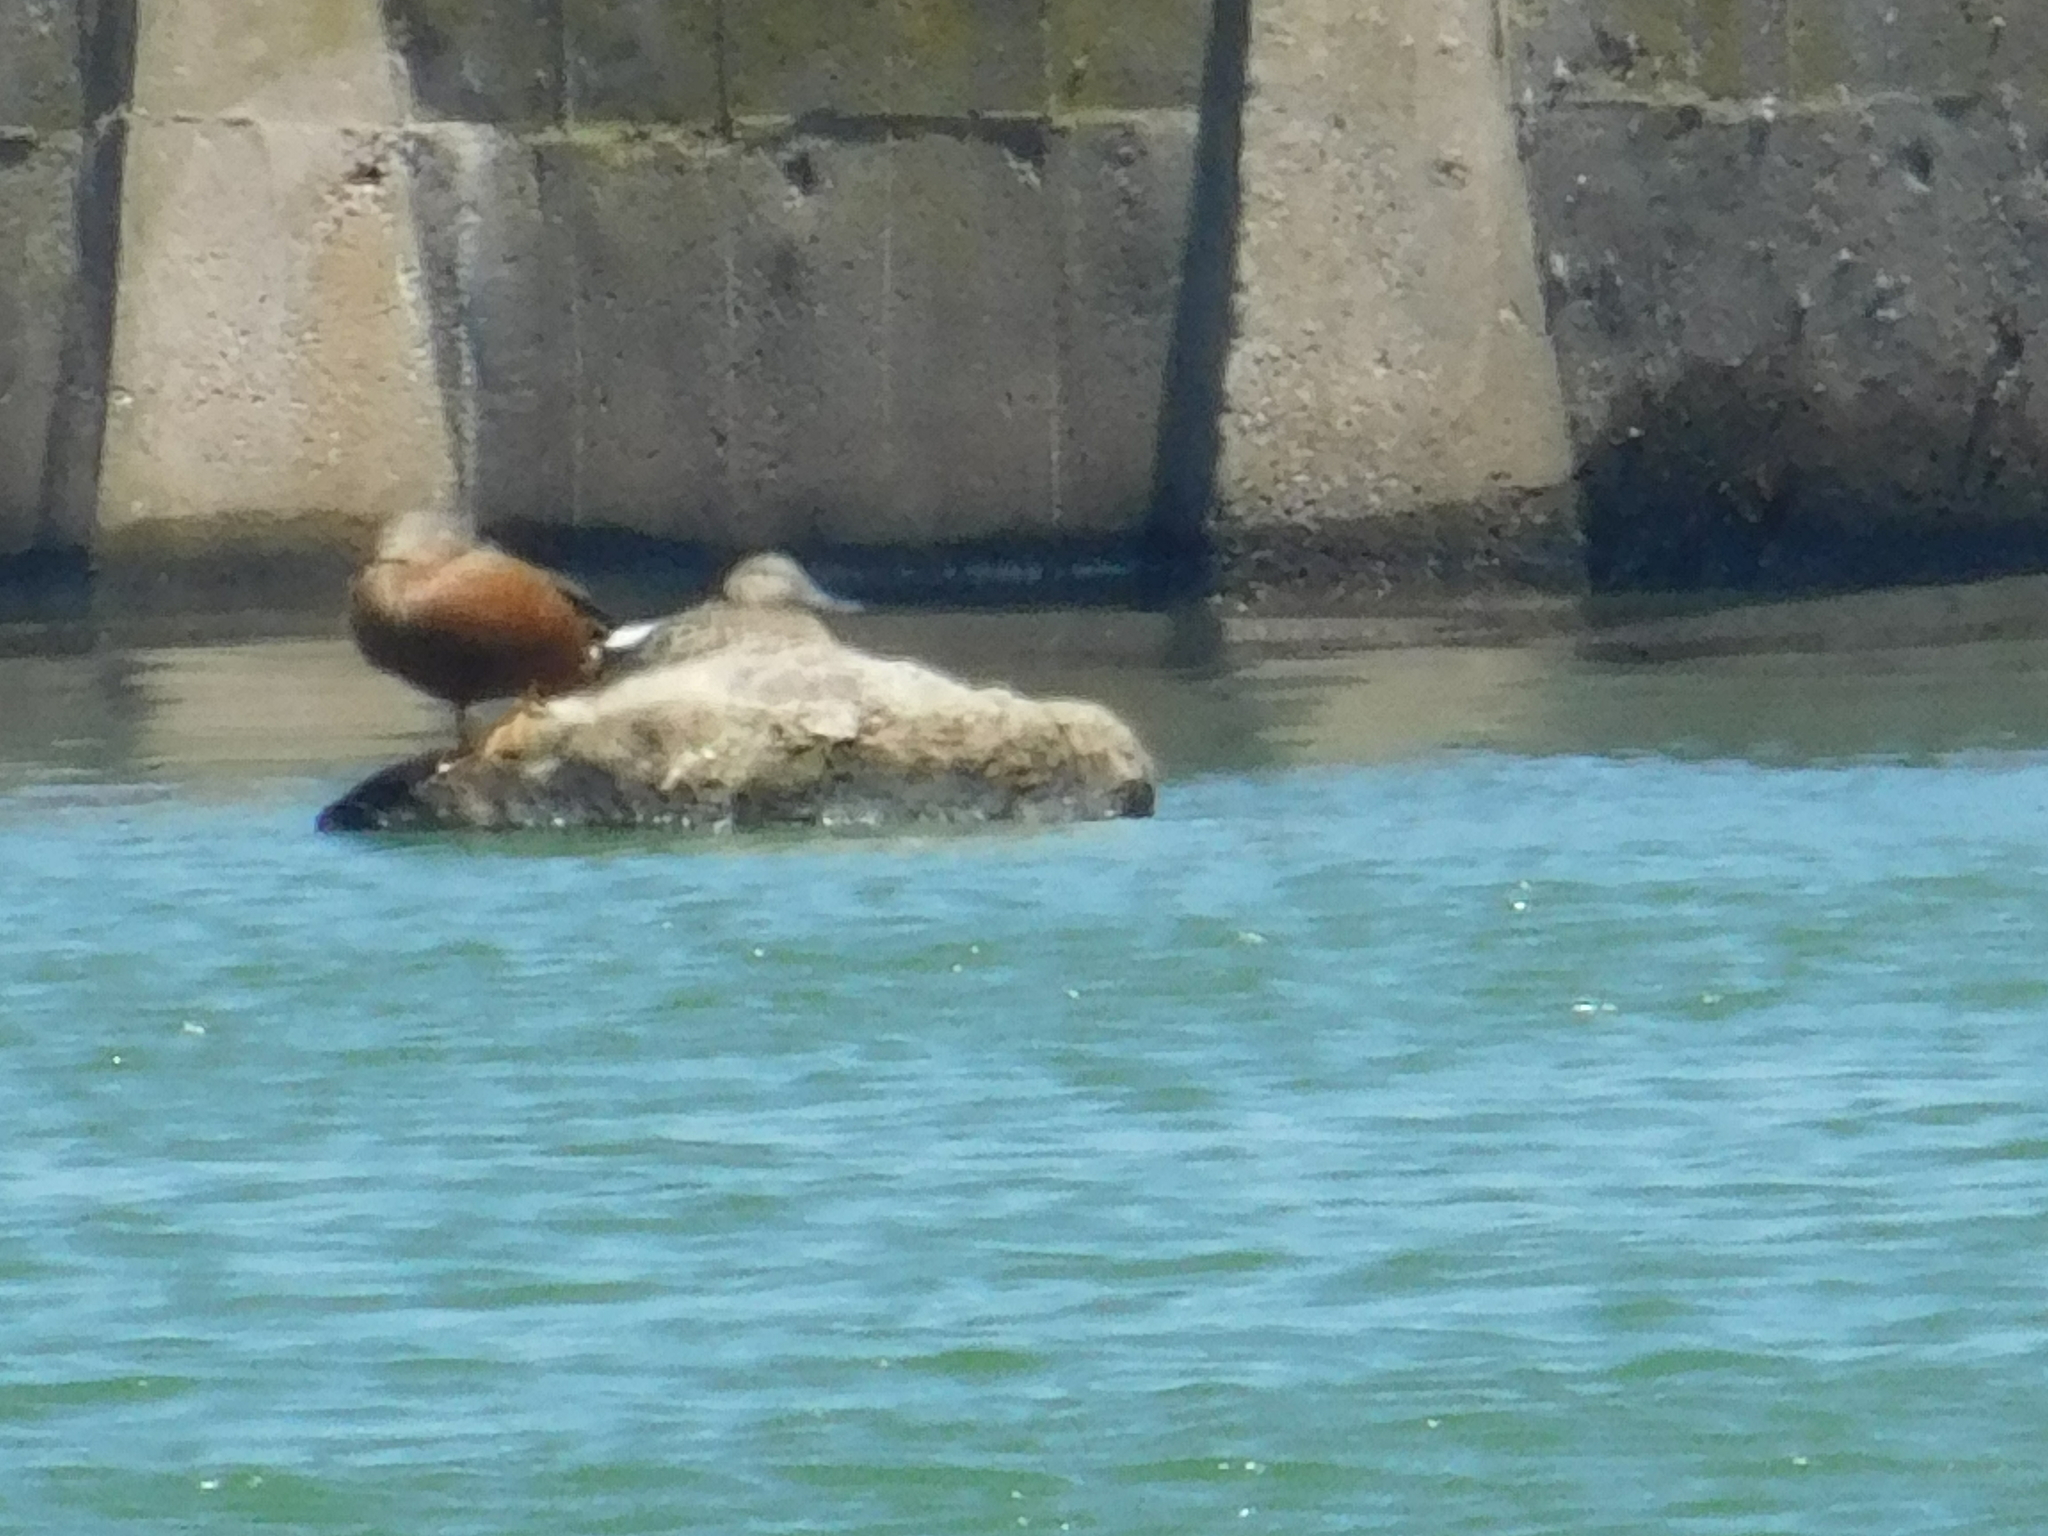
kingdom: Animalia
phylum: Chordata
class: Aves
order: Anseriformes
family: Anatidae
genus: Spatula
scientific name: Spatula platalea
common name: Red shoveler
